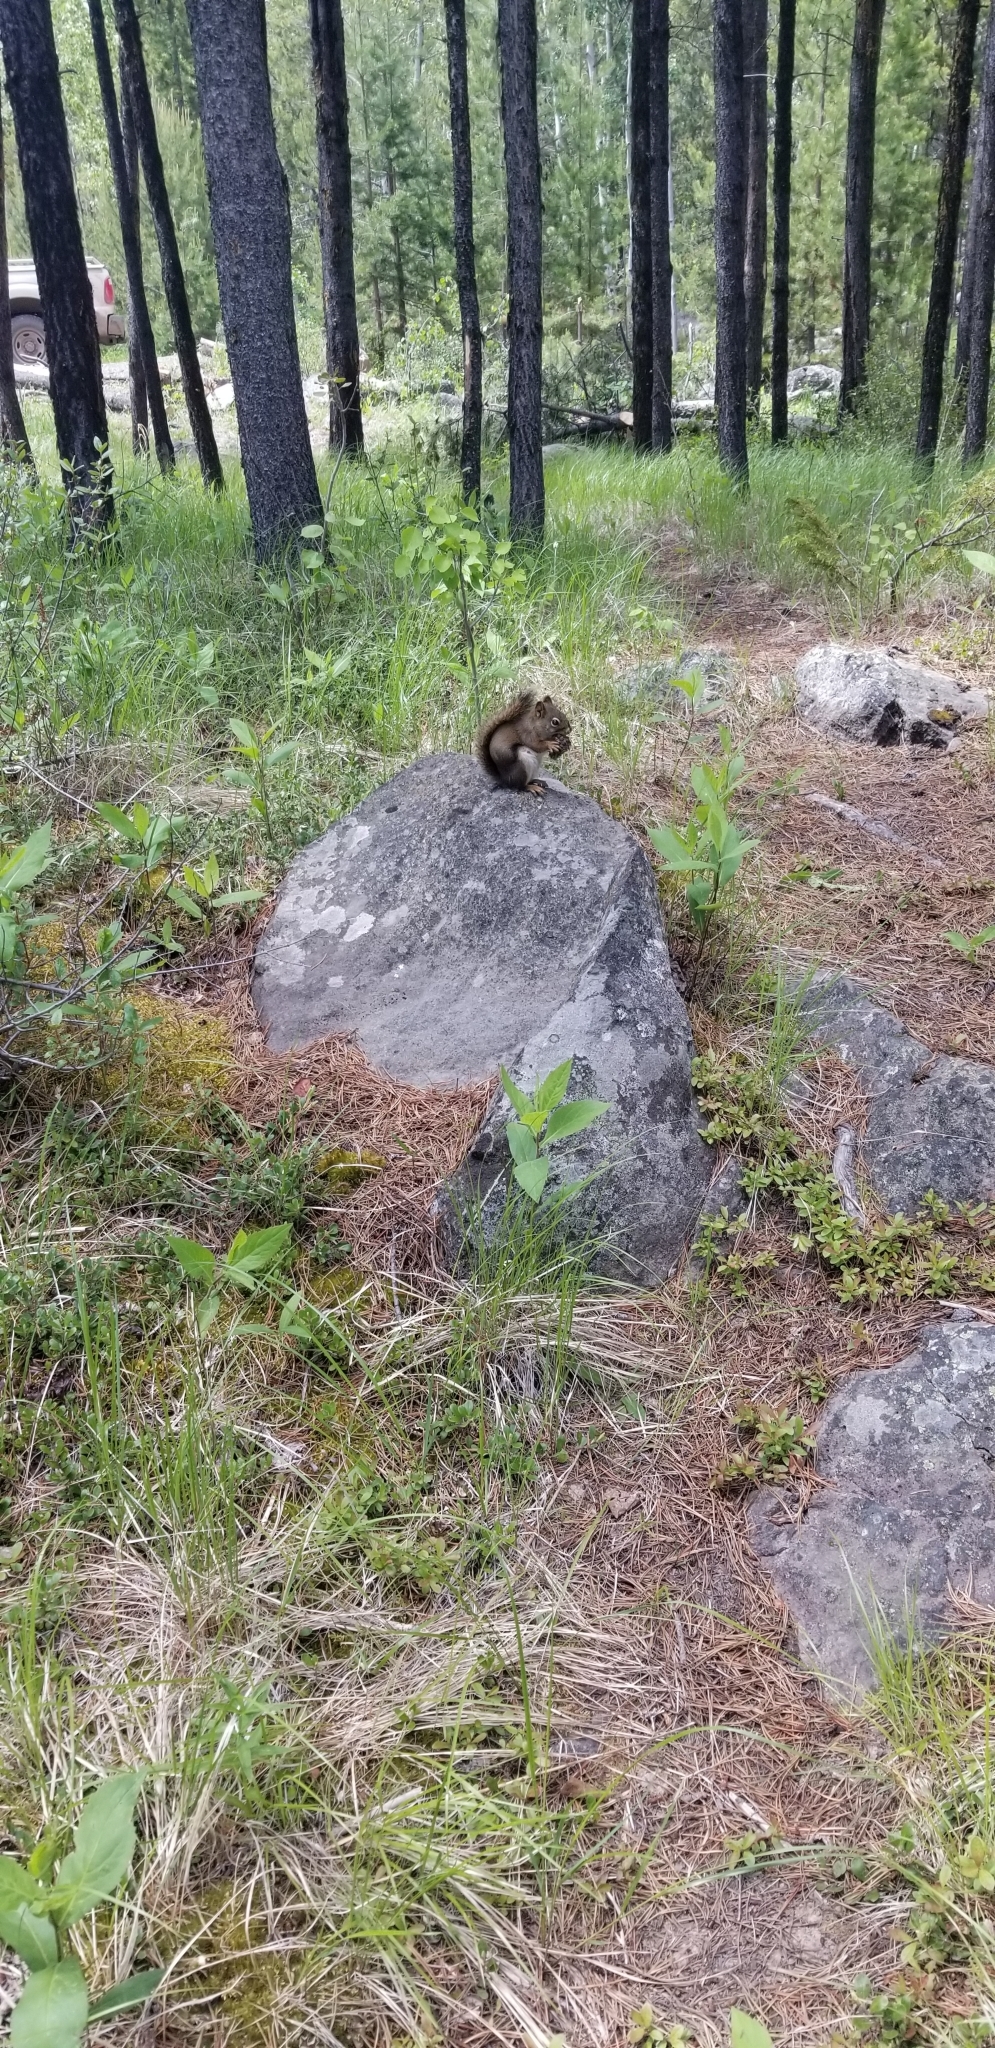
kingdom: Animalia
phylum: Chordata
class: Mammalia
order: Rodentia
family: Sciuridae
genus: Tamiasciurus
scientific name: Tamiasciurus hudsonicus
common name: Red squirrel
